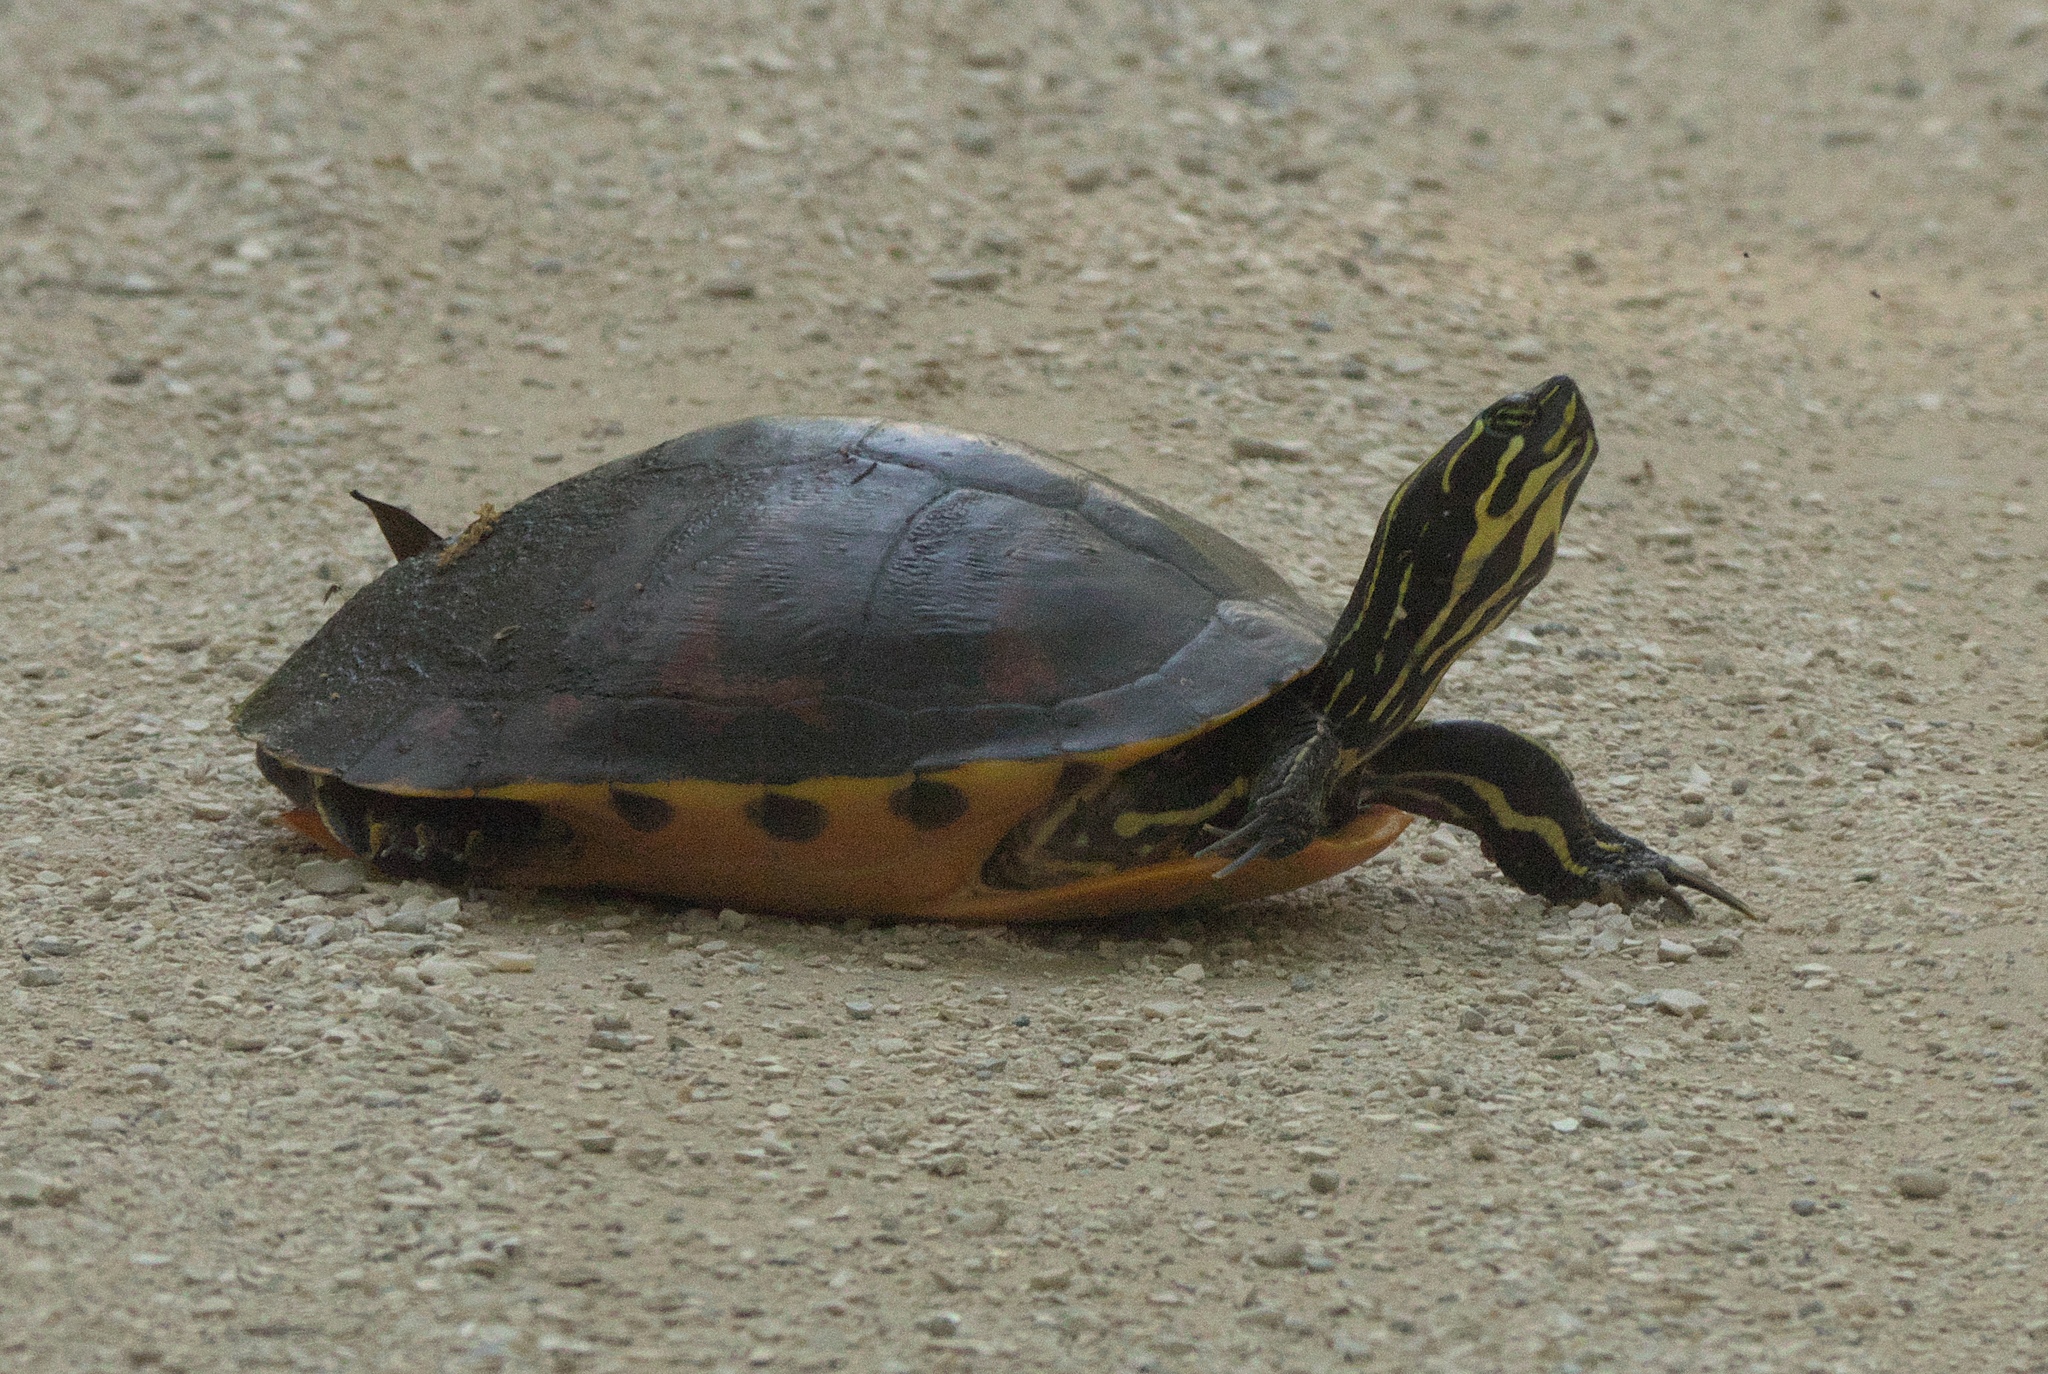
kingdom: Animalia
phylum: Chordata
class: Testudines
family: Emydidae
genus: Pseudemys
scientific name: Pseudemys peninsularis
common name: Peninsula cooter
